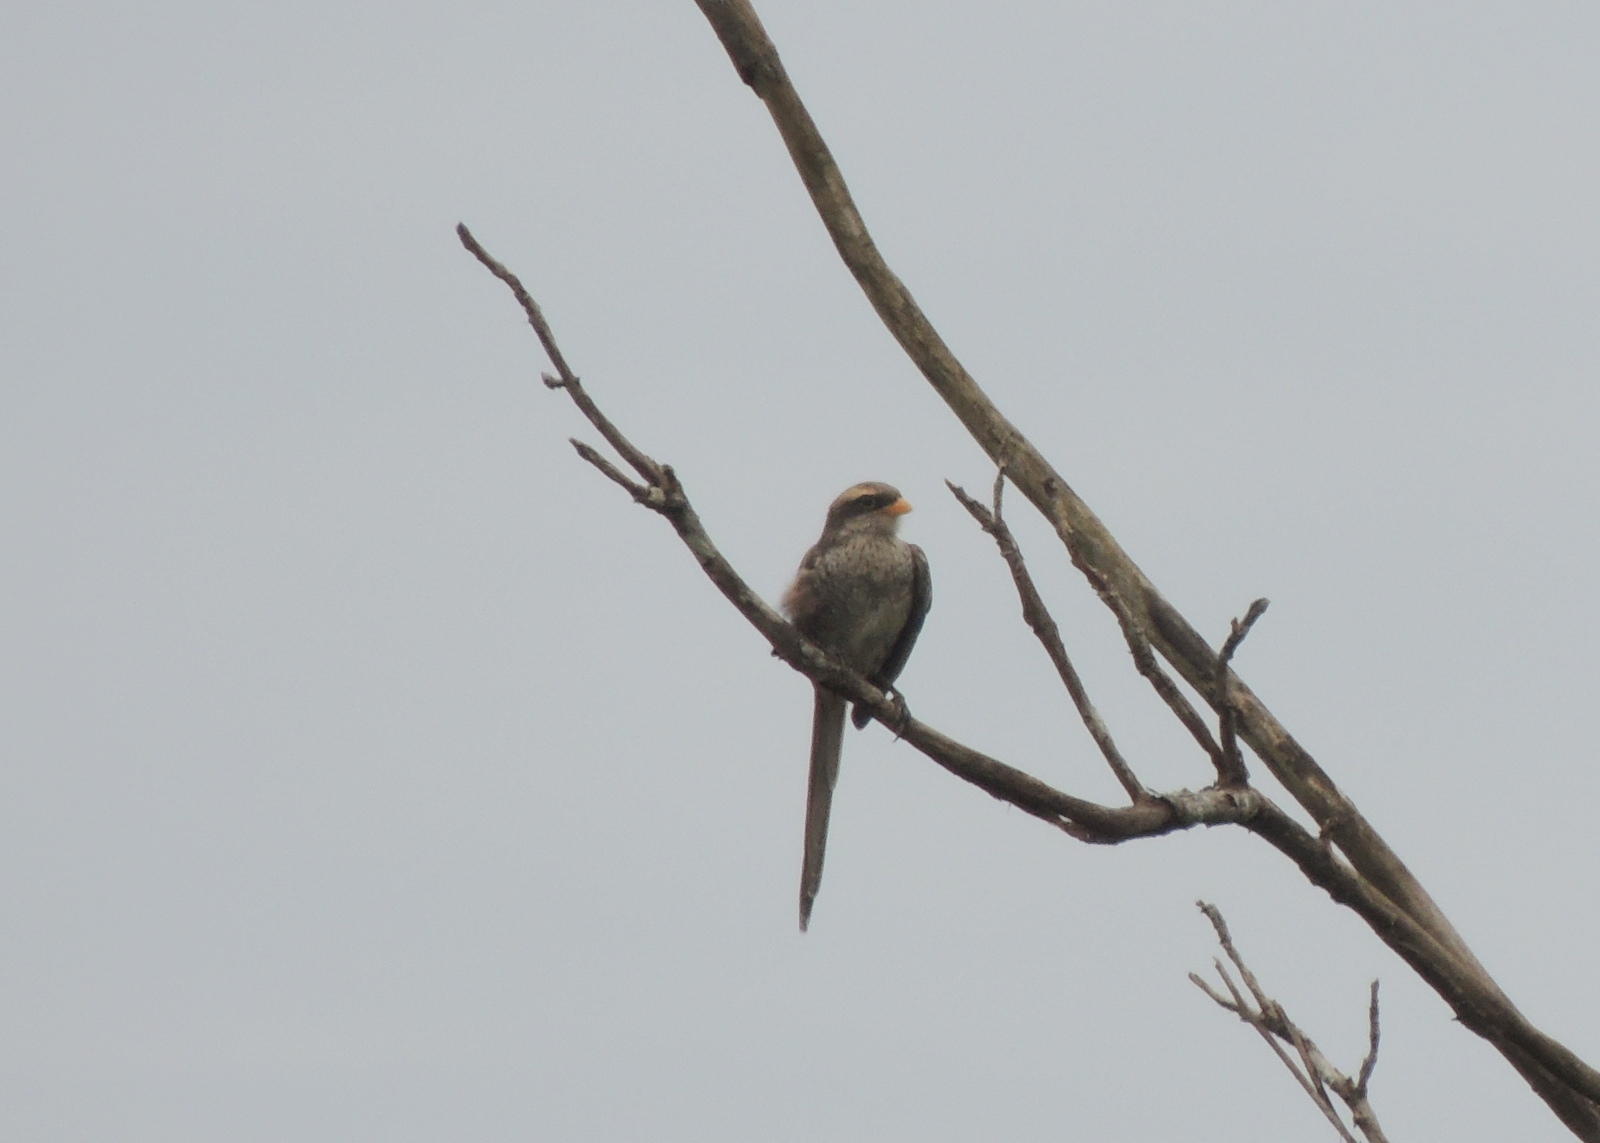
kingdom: Animalia
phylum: Chordata
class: Aves
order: Passeriformes
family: Laniidae
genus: Corvinella
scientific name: Corvinella corvina
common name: Yellow-billed shrike
